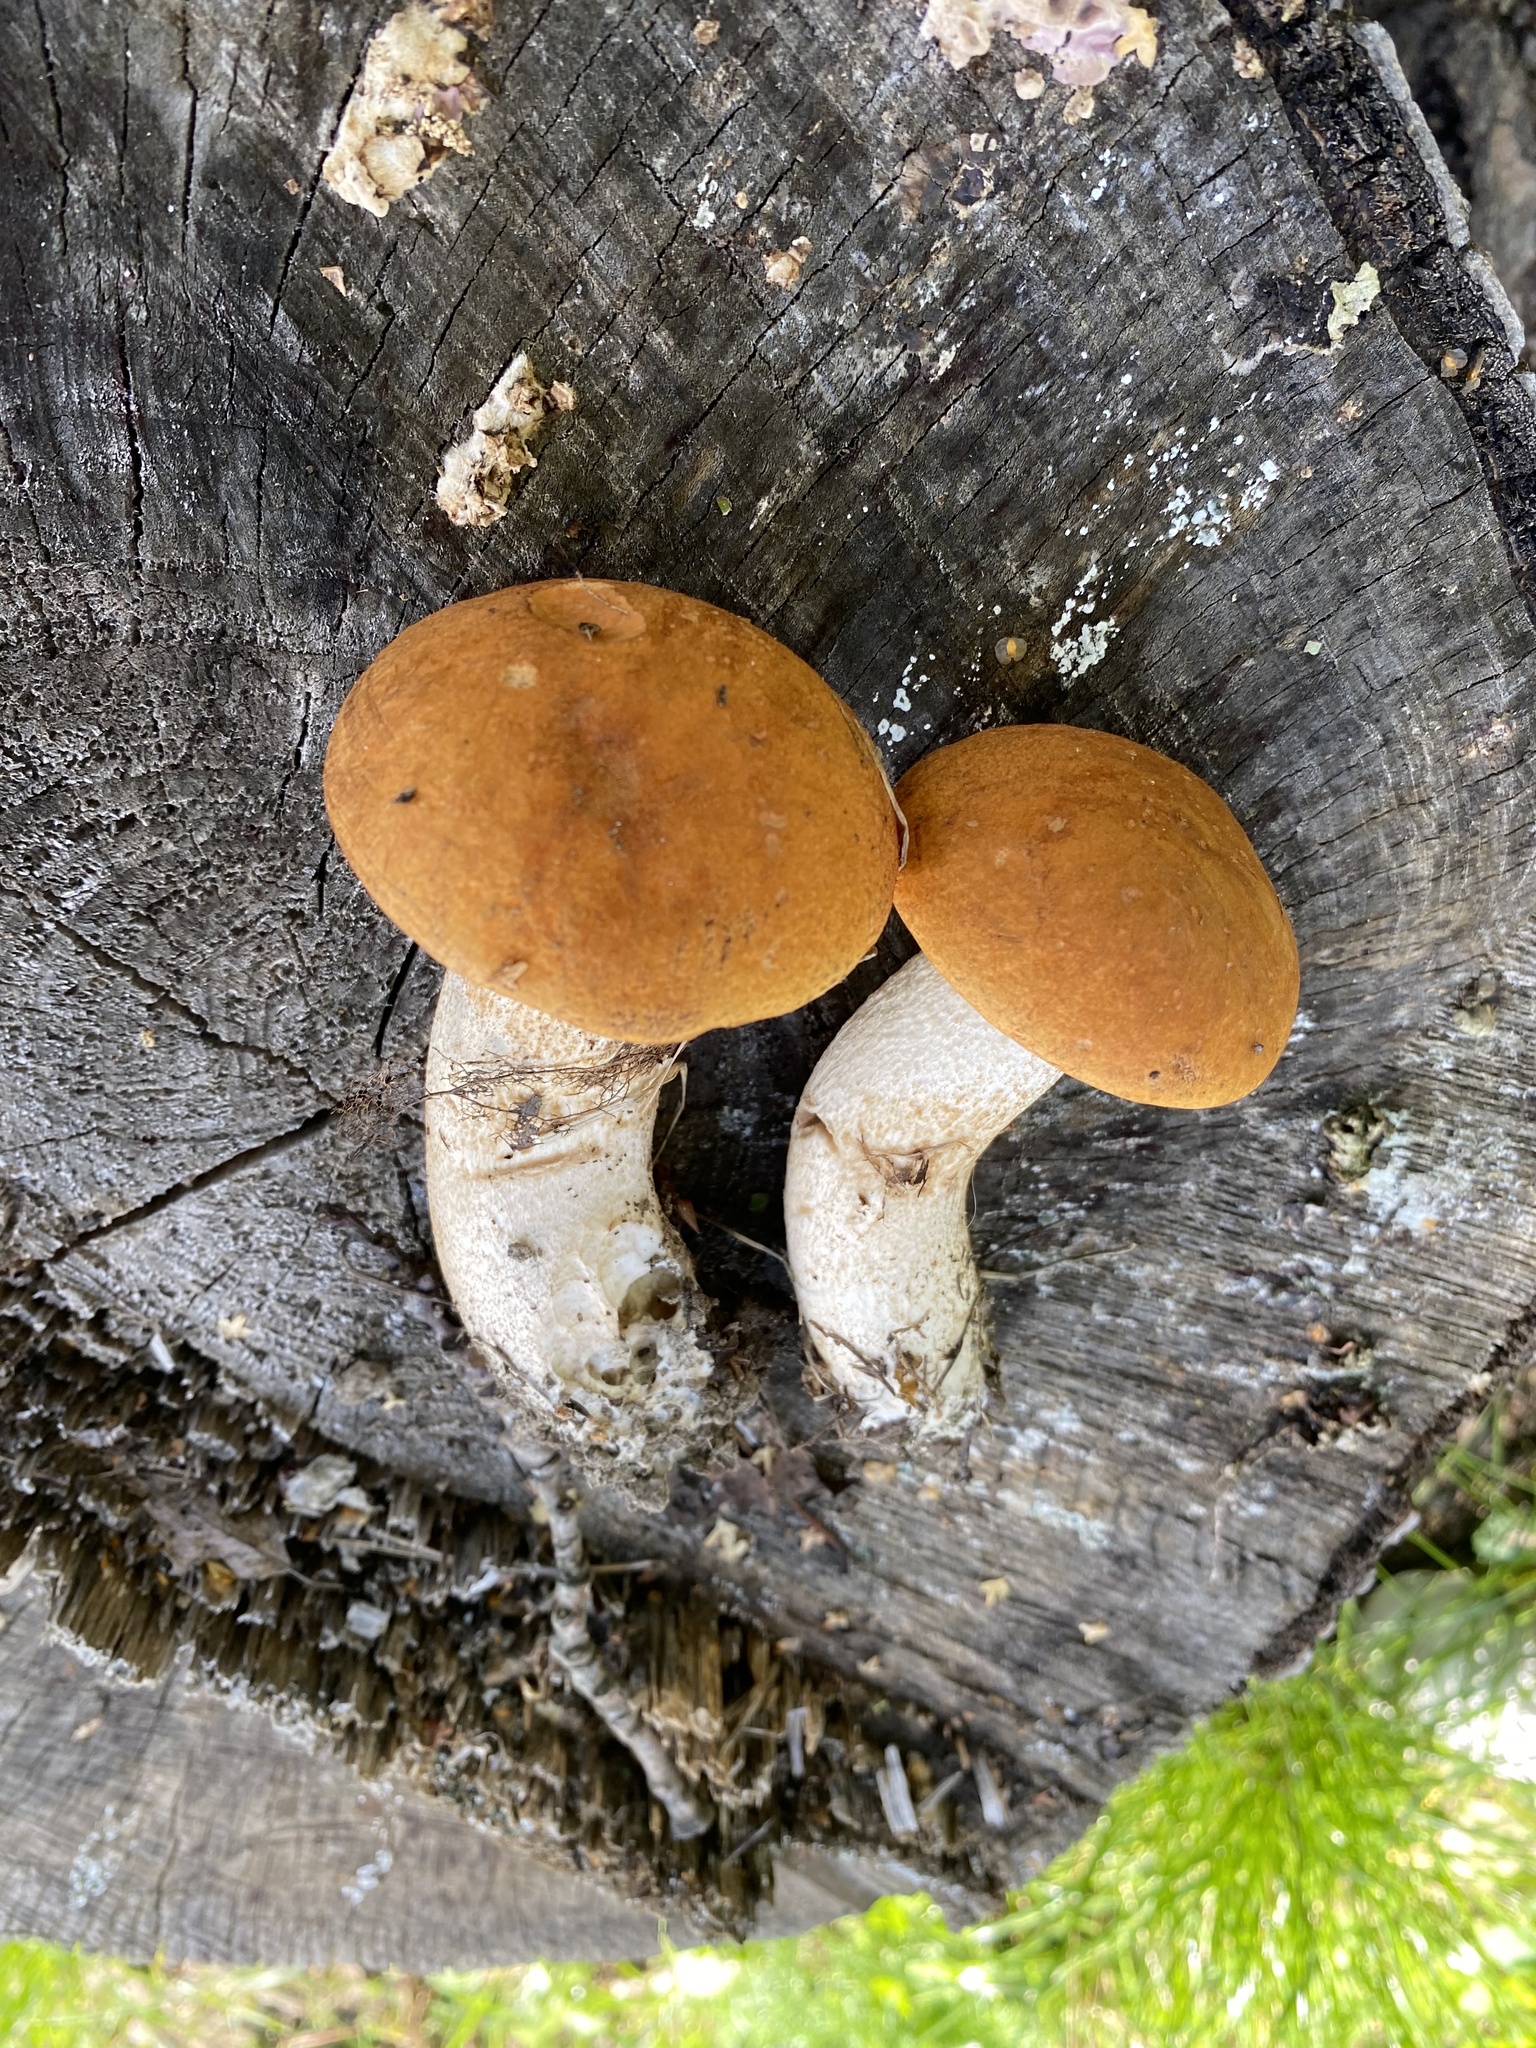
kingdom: Fungi
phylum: Basidiomycota
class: Agaricomycetes
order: Boletales
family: Boletaceae
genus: Leccinum
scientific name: Leccinum albostipitatum
